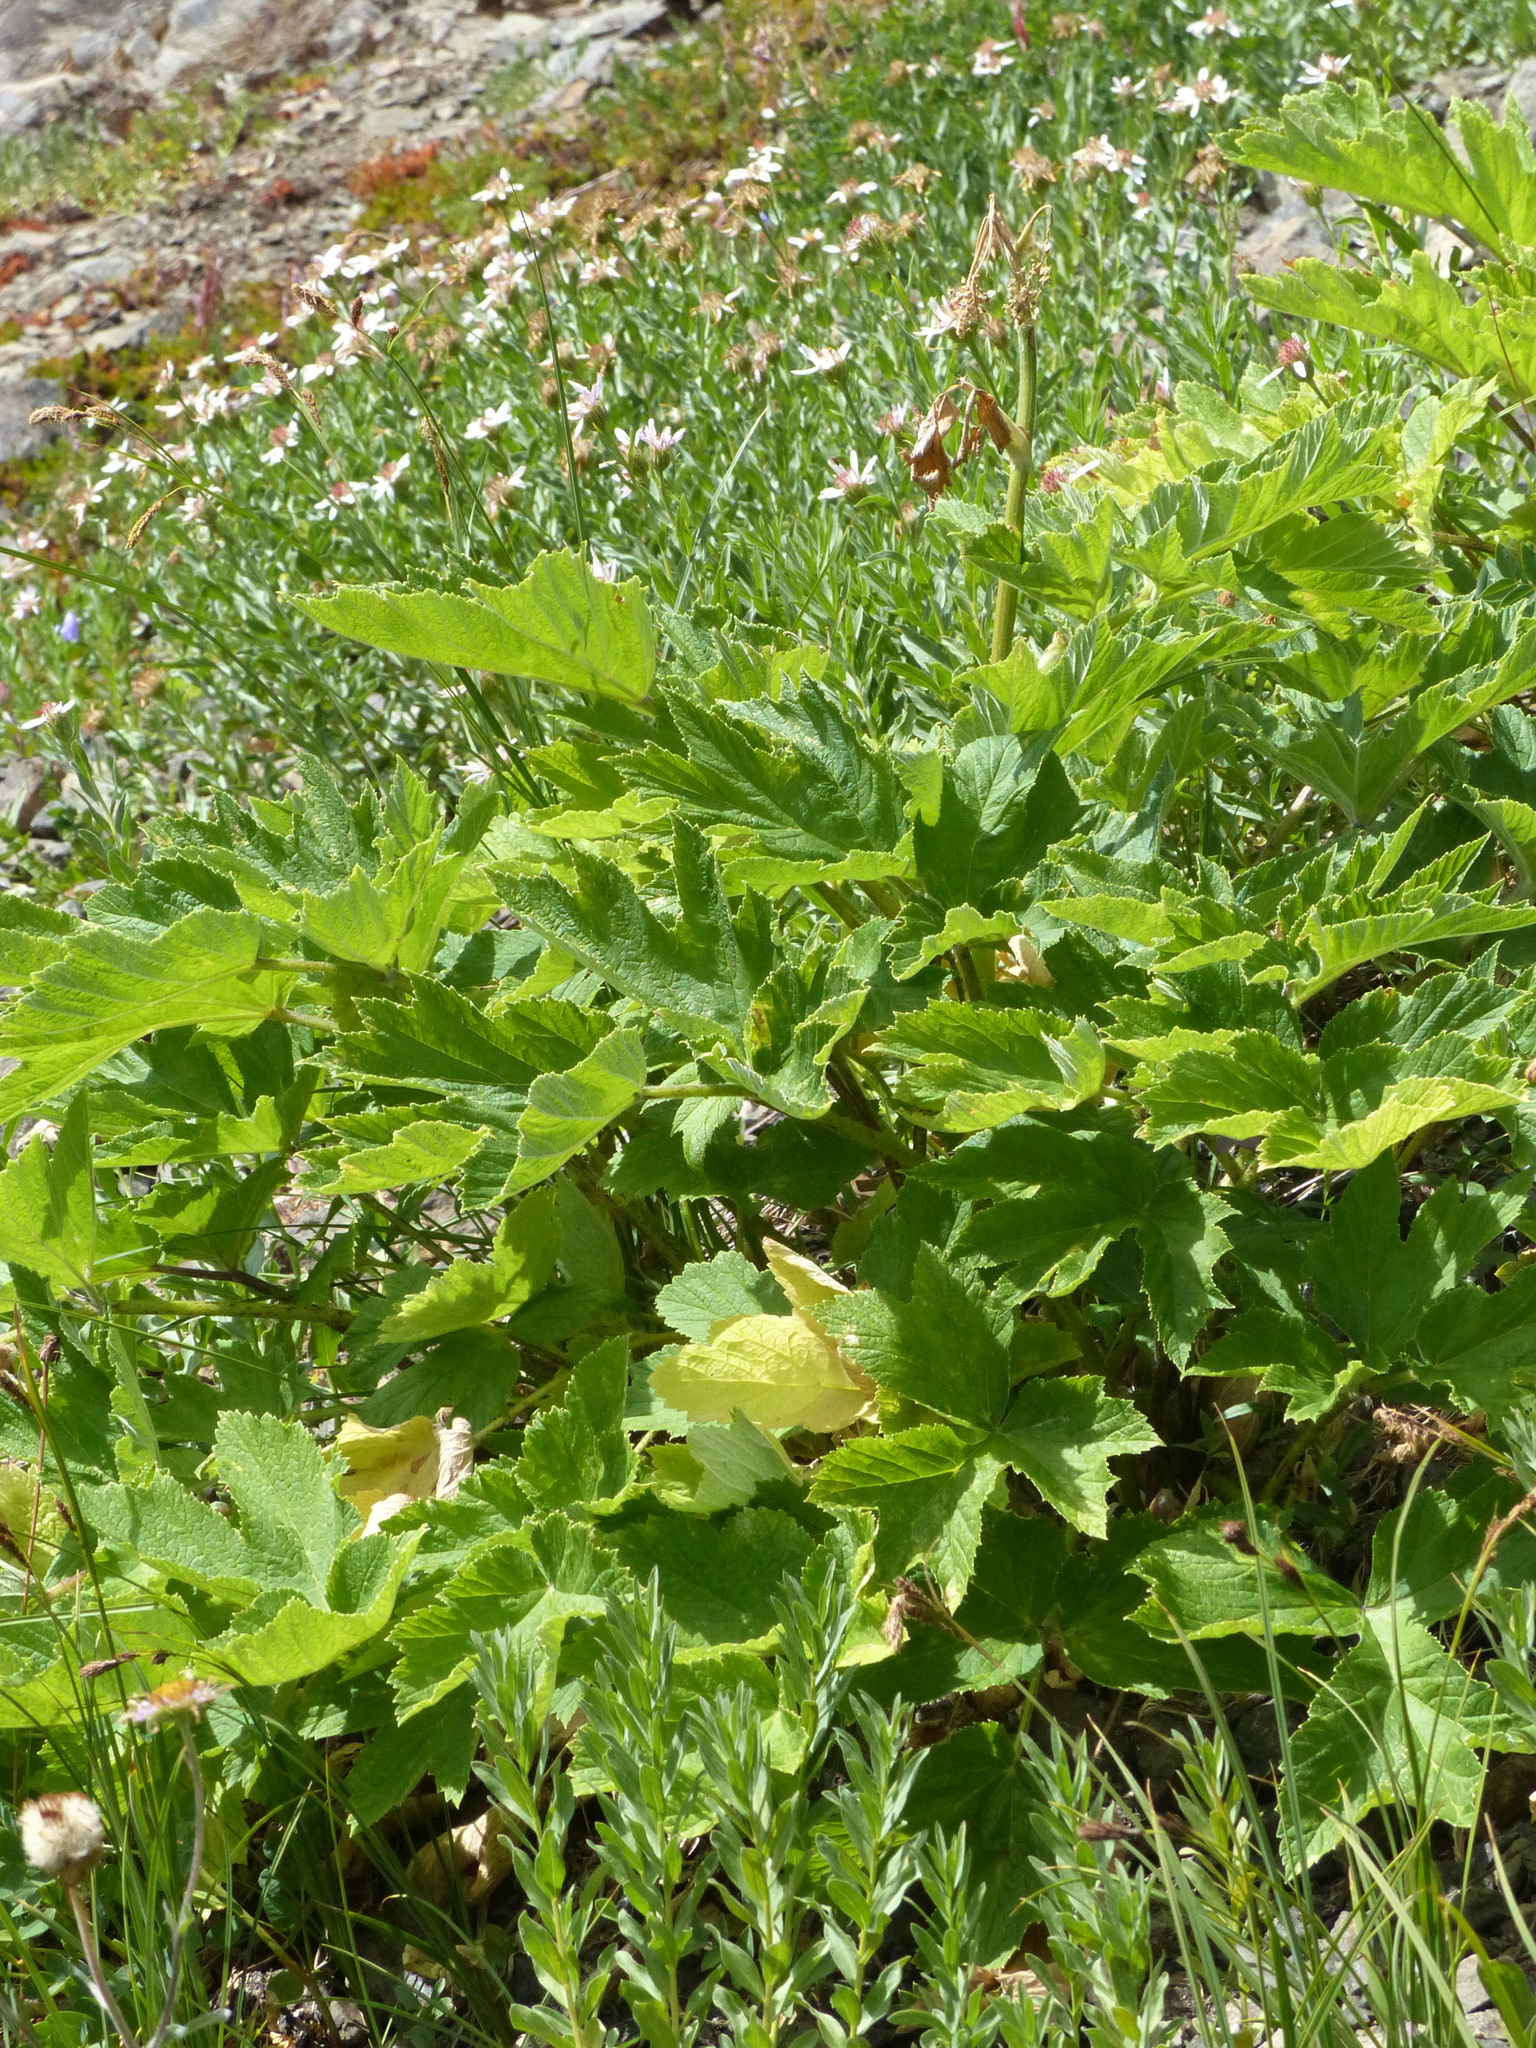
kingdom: Plantae
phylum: Tracheophyta
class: Magnoliopsida
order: Apiales
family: Apiaceae
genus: Heracleum
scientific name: Heracleum maximum
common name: American cow parsnip
